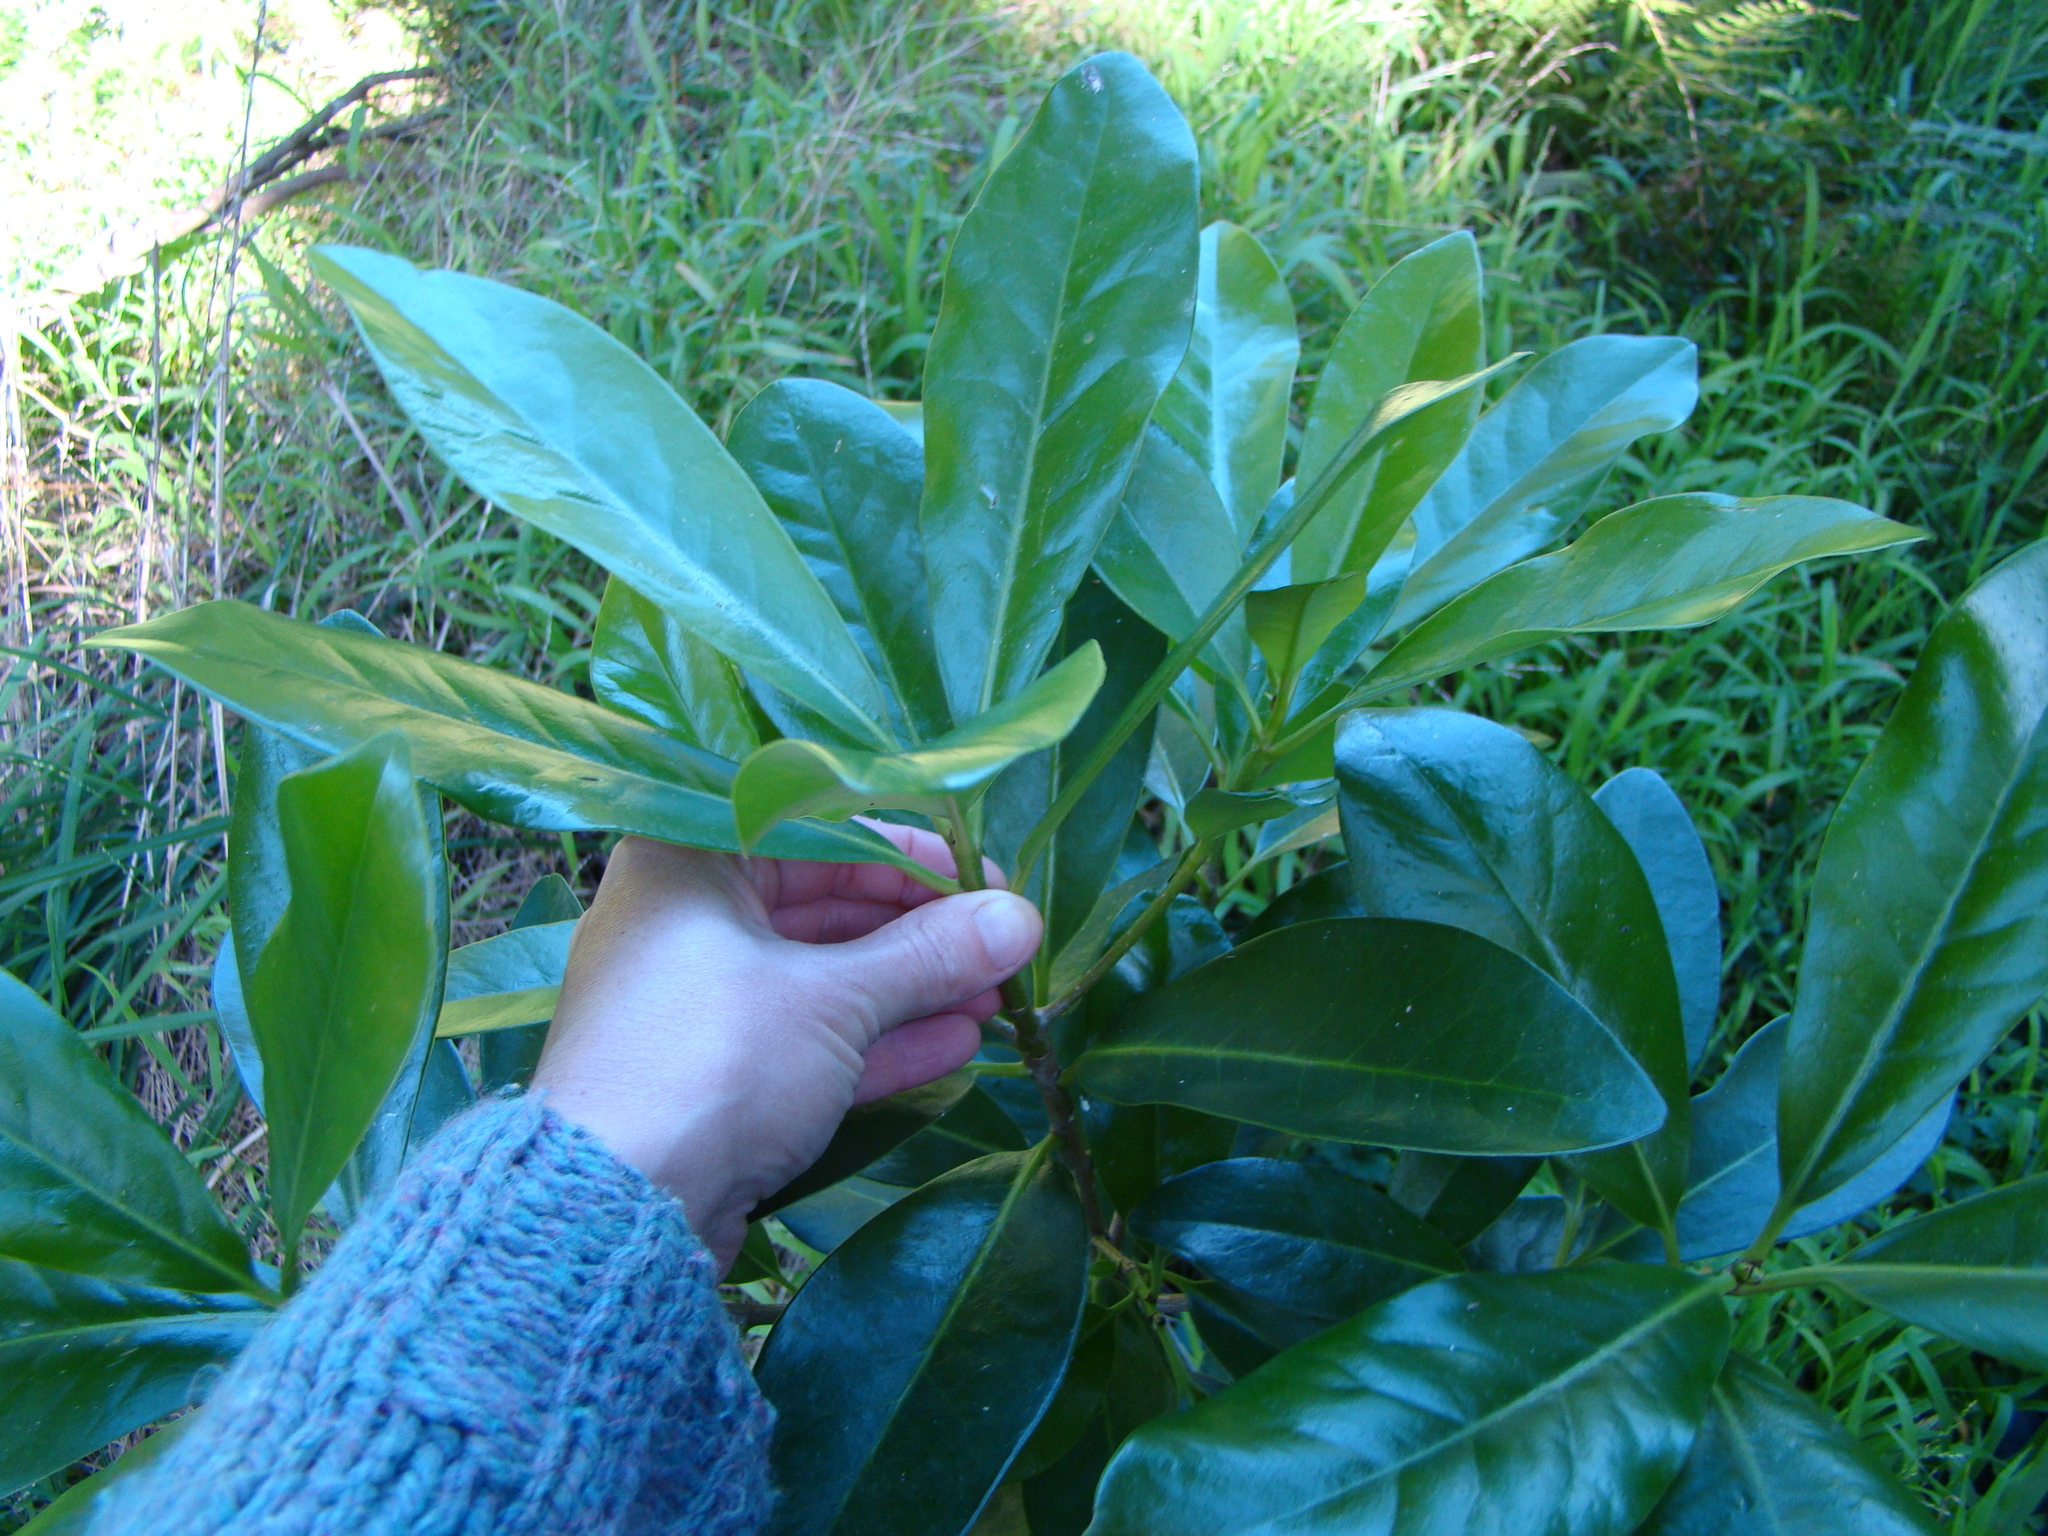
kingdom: Plantae
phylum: Tracheophyta
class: Magnoliopsida
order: Cucurbitales
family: Corynocarpaceae
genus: Corynocarpus
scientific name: Corynocarpus laevigatus
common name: New zealand laurel
